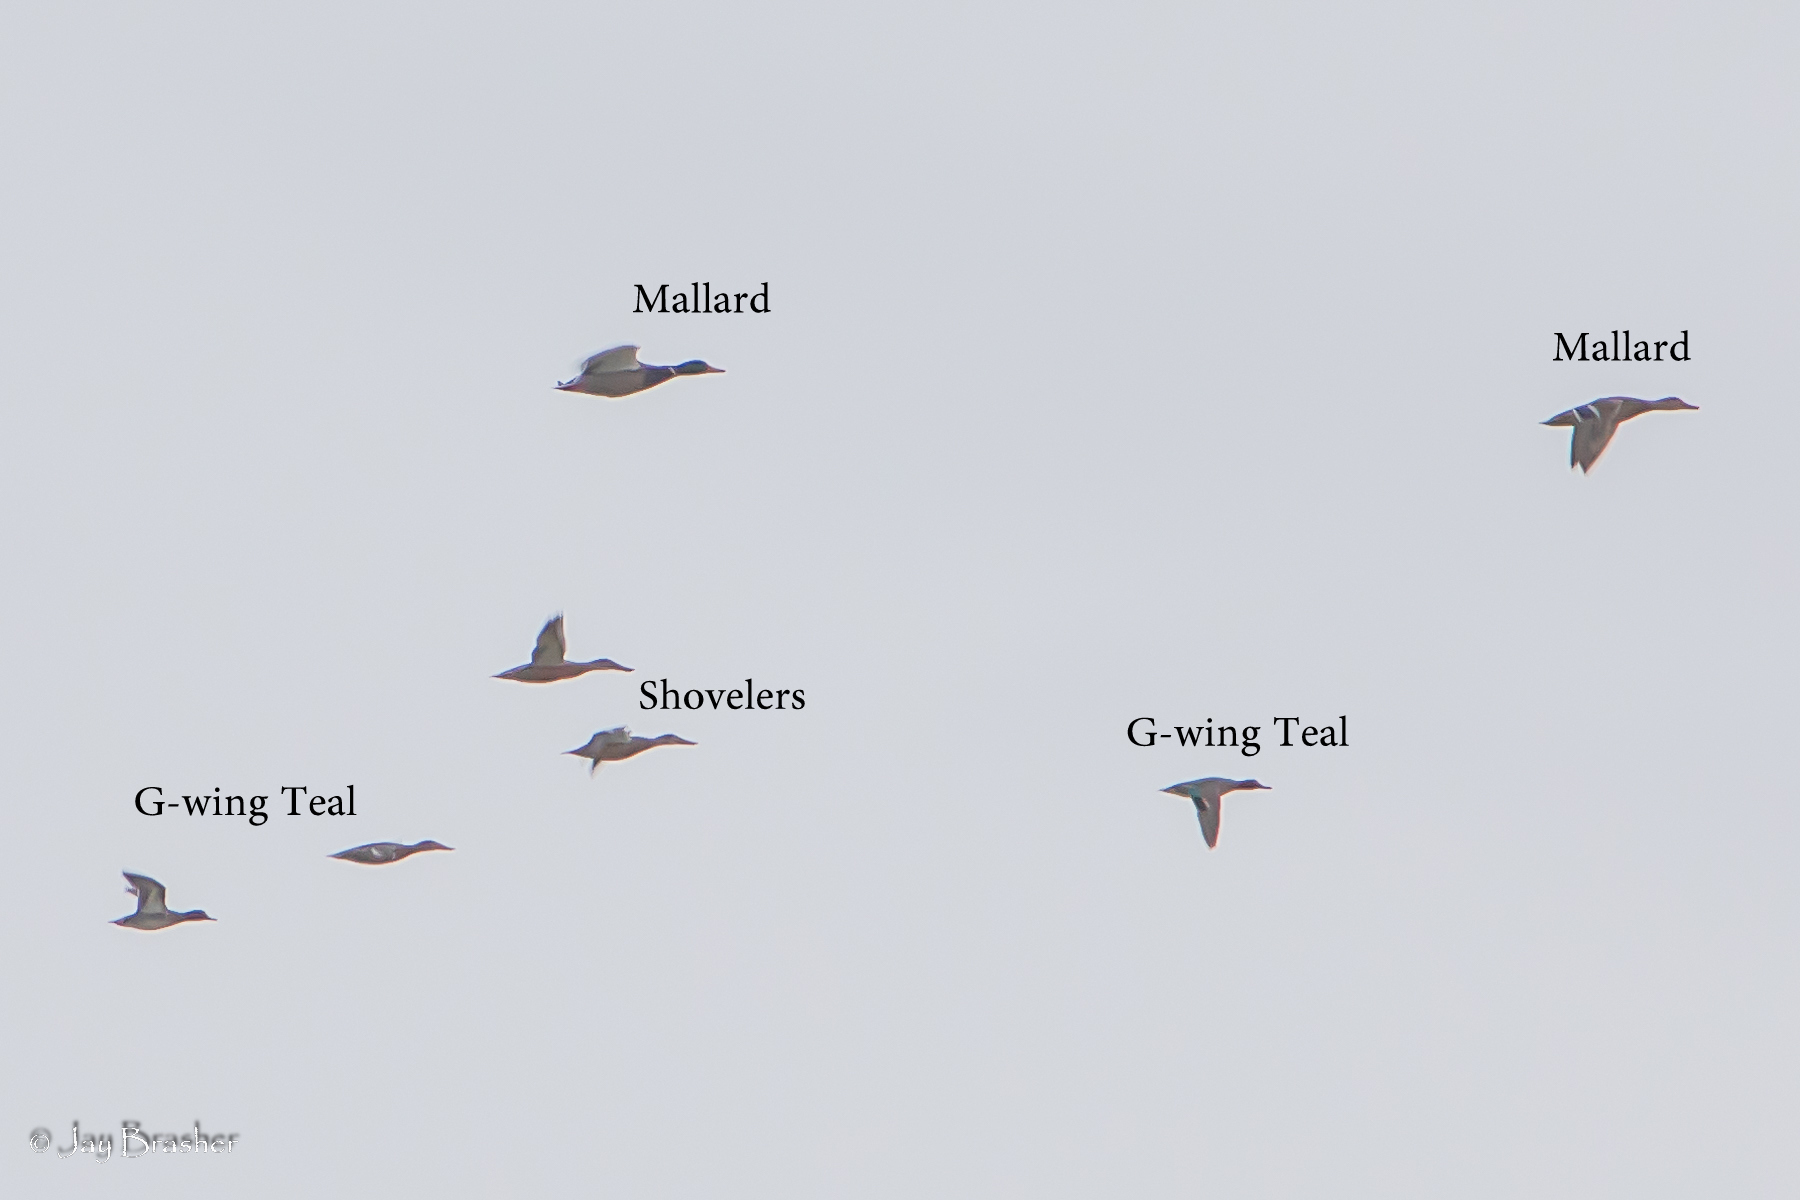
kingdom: Animalia
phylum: Chordata
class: Aves
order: Anseriformes
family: Anatidae
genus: Anas
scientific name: Anas platyrhynchos
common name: Mallard
